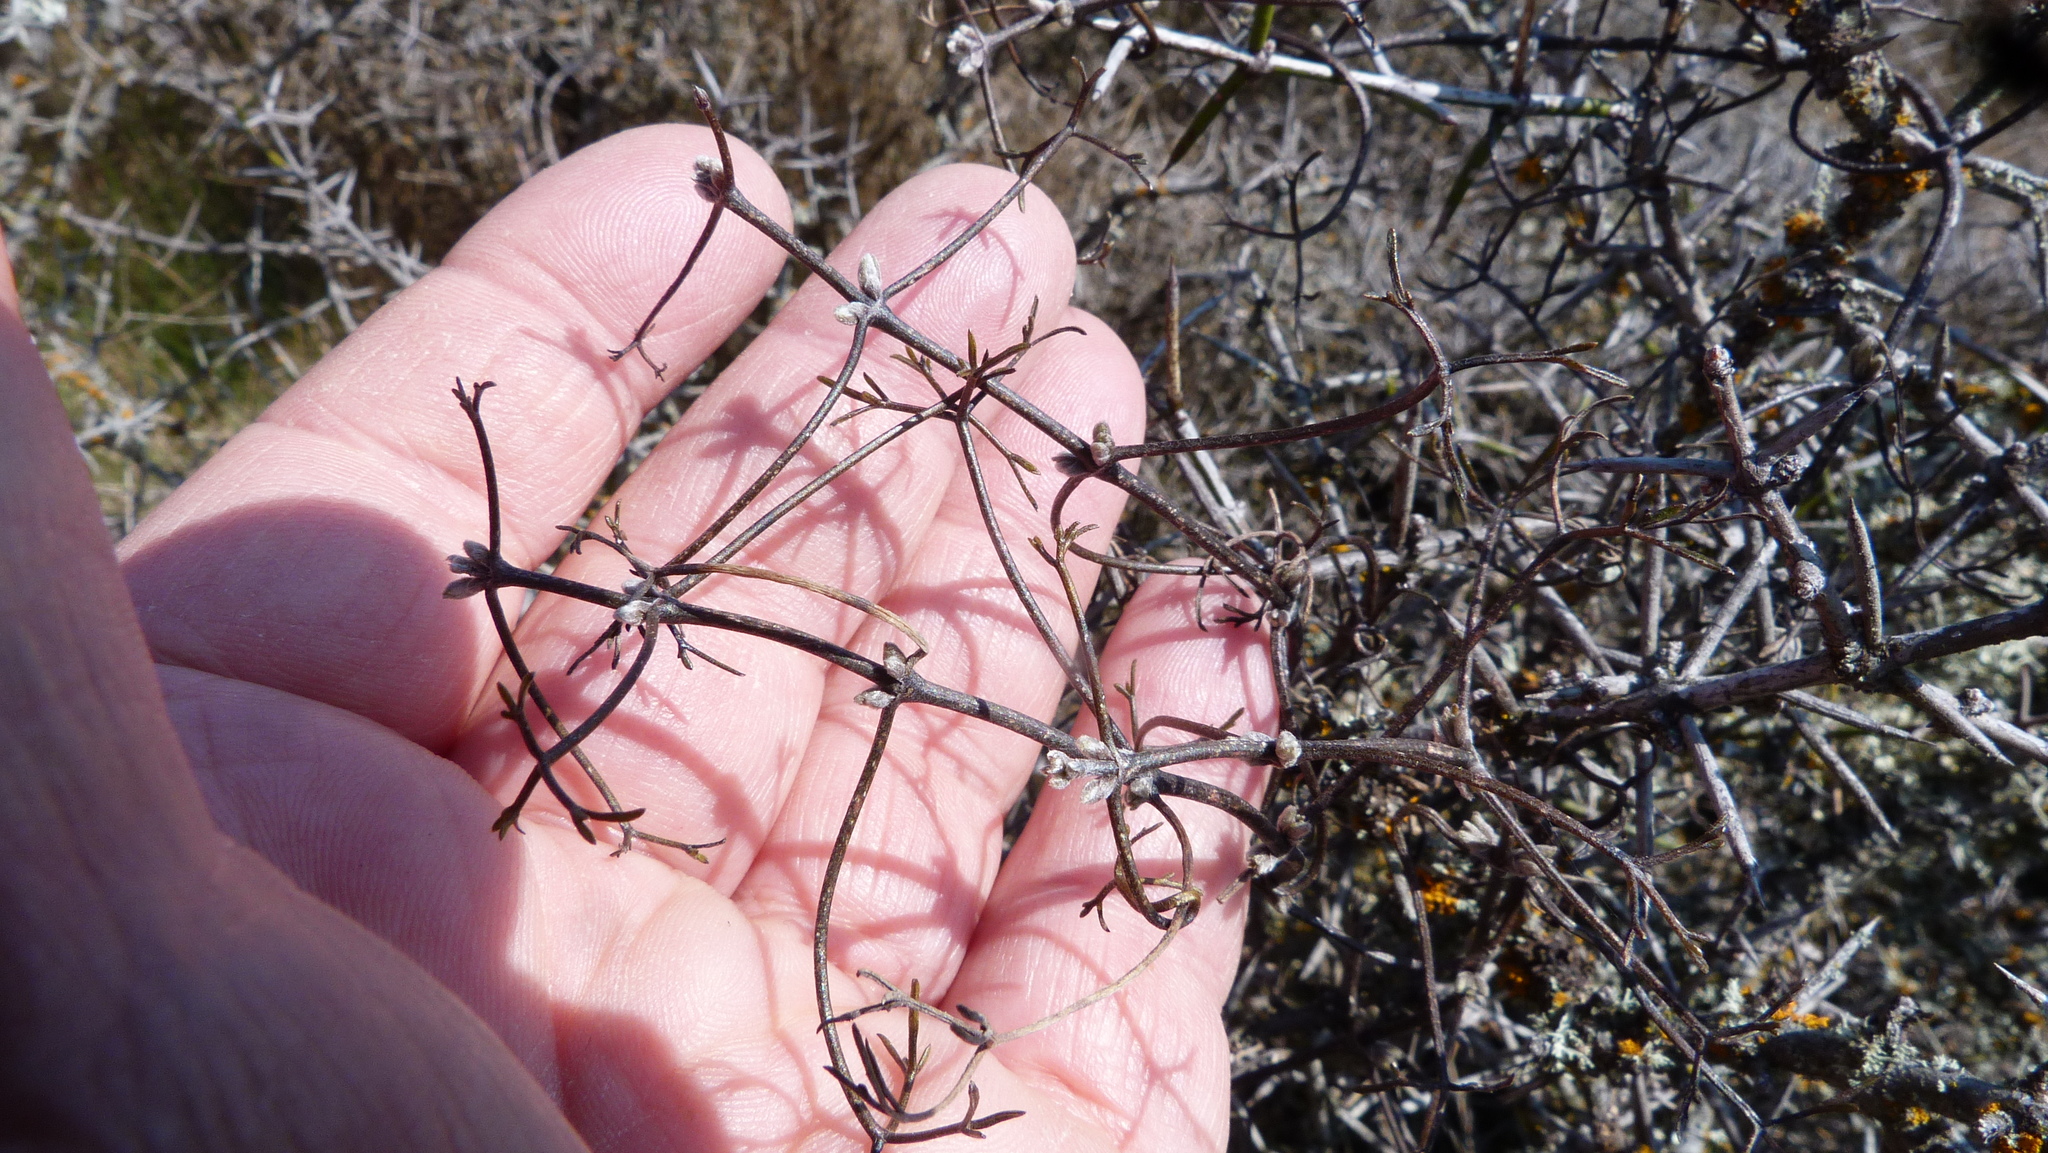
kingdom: Plantae
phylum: Tracheophyta
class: Magnoliopsida
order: Ranunculales
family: Ranunculaceae
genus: Clematis
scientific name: Clematis marata
